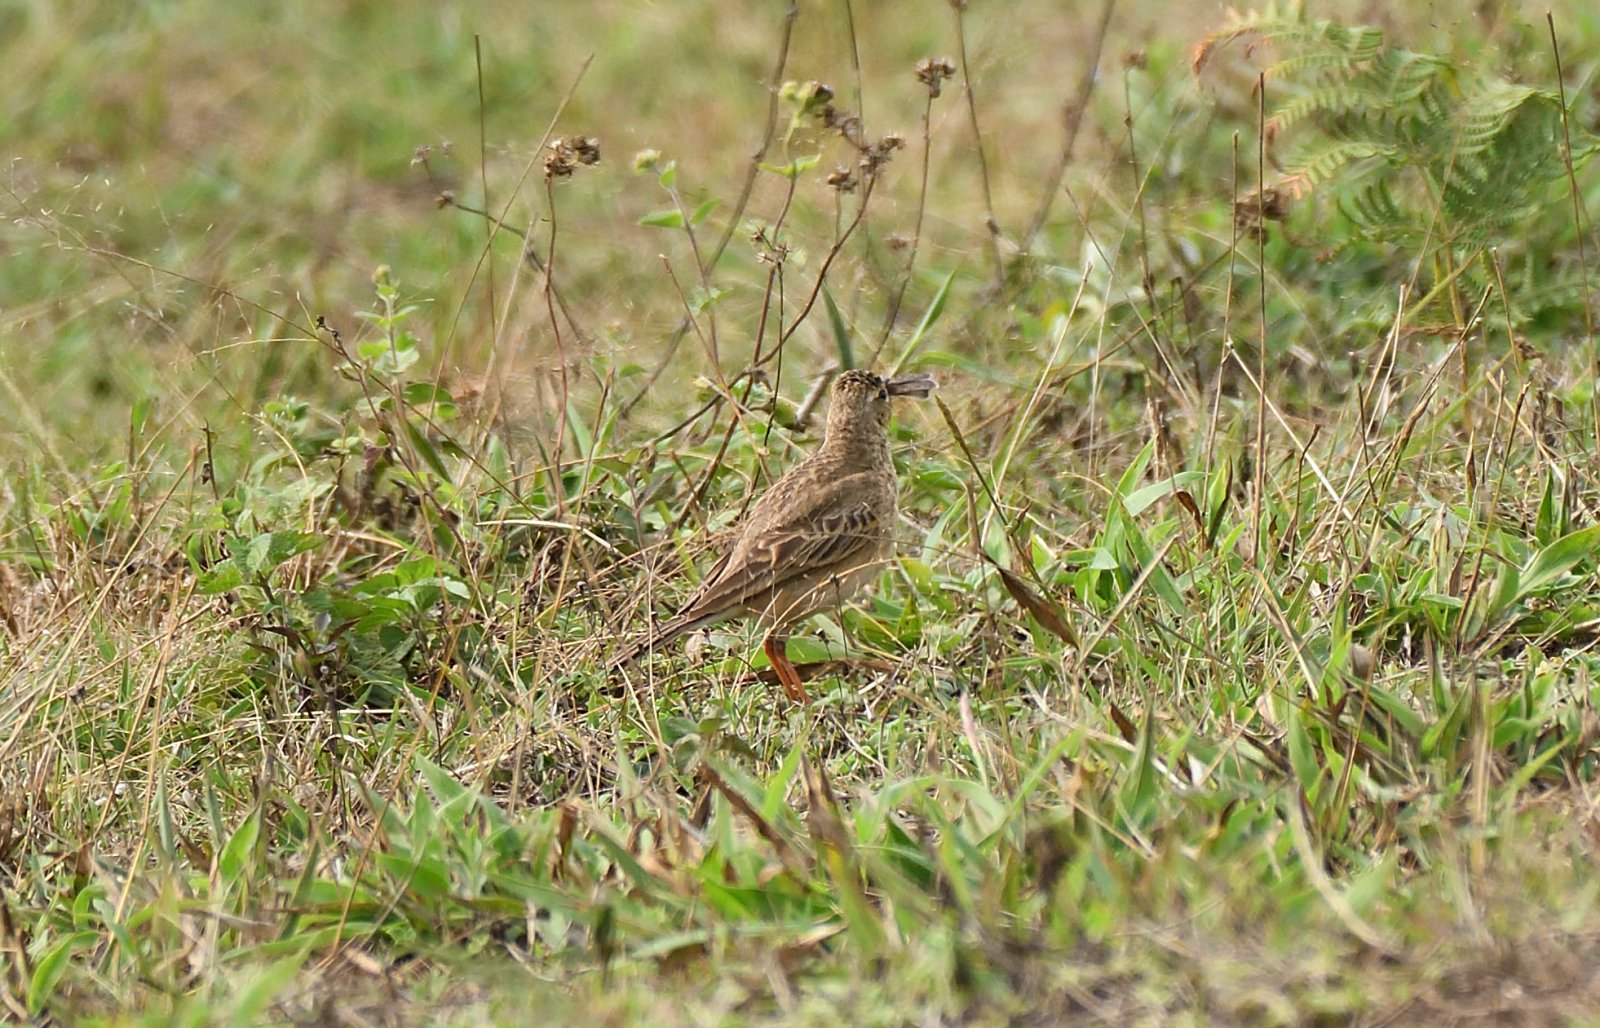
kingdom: Animalia
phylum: Chordata
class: Aves
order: Passeriformes
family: Motacillidae
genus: Anthus
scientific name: Anthus rufulus
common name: Paddyfield pipit
